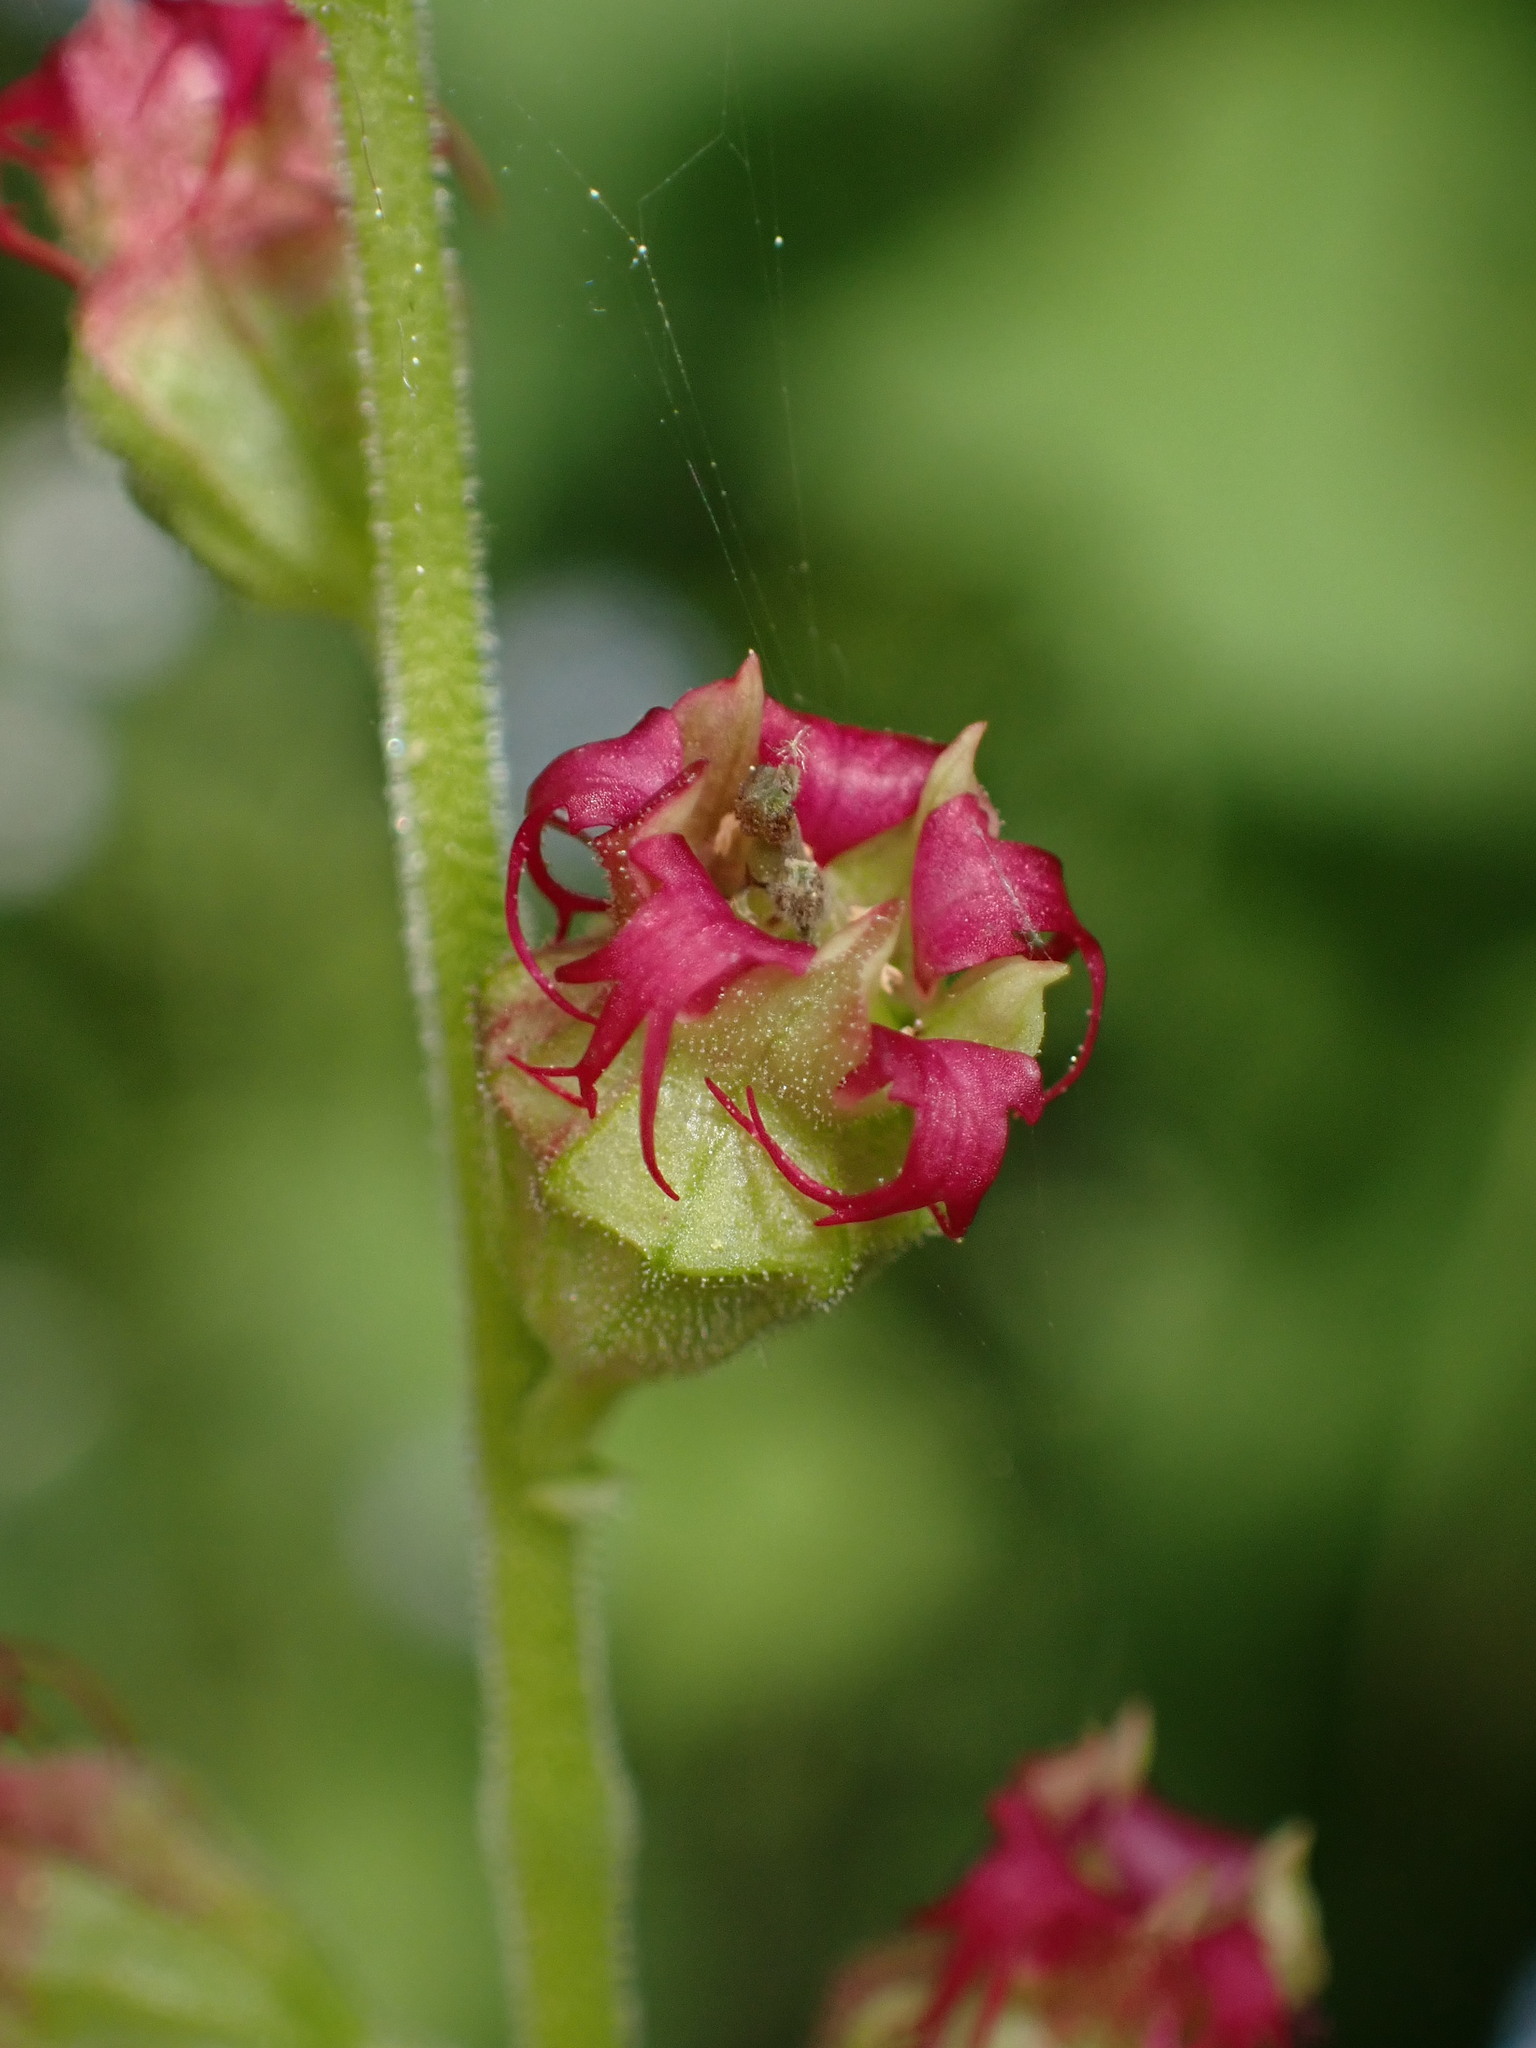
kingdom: Plantae
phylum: Tracheophyta
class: Magnoliopsida
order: Saxifragales
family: Saxifragaceae
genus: Tellima
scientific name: Tellima grandiflora
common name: Fringecups
